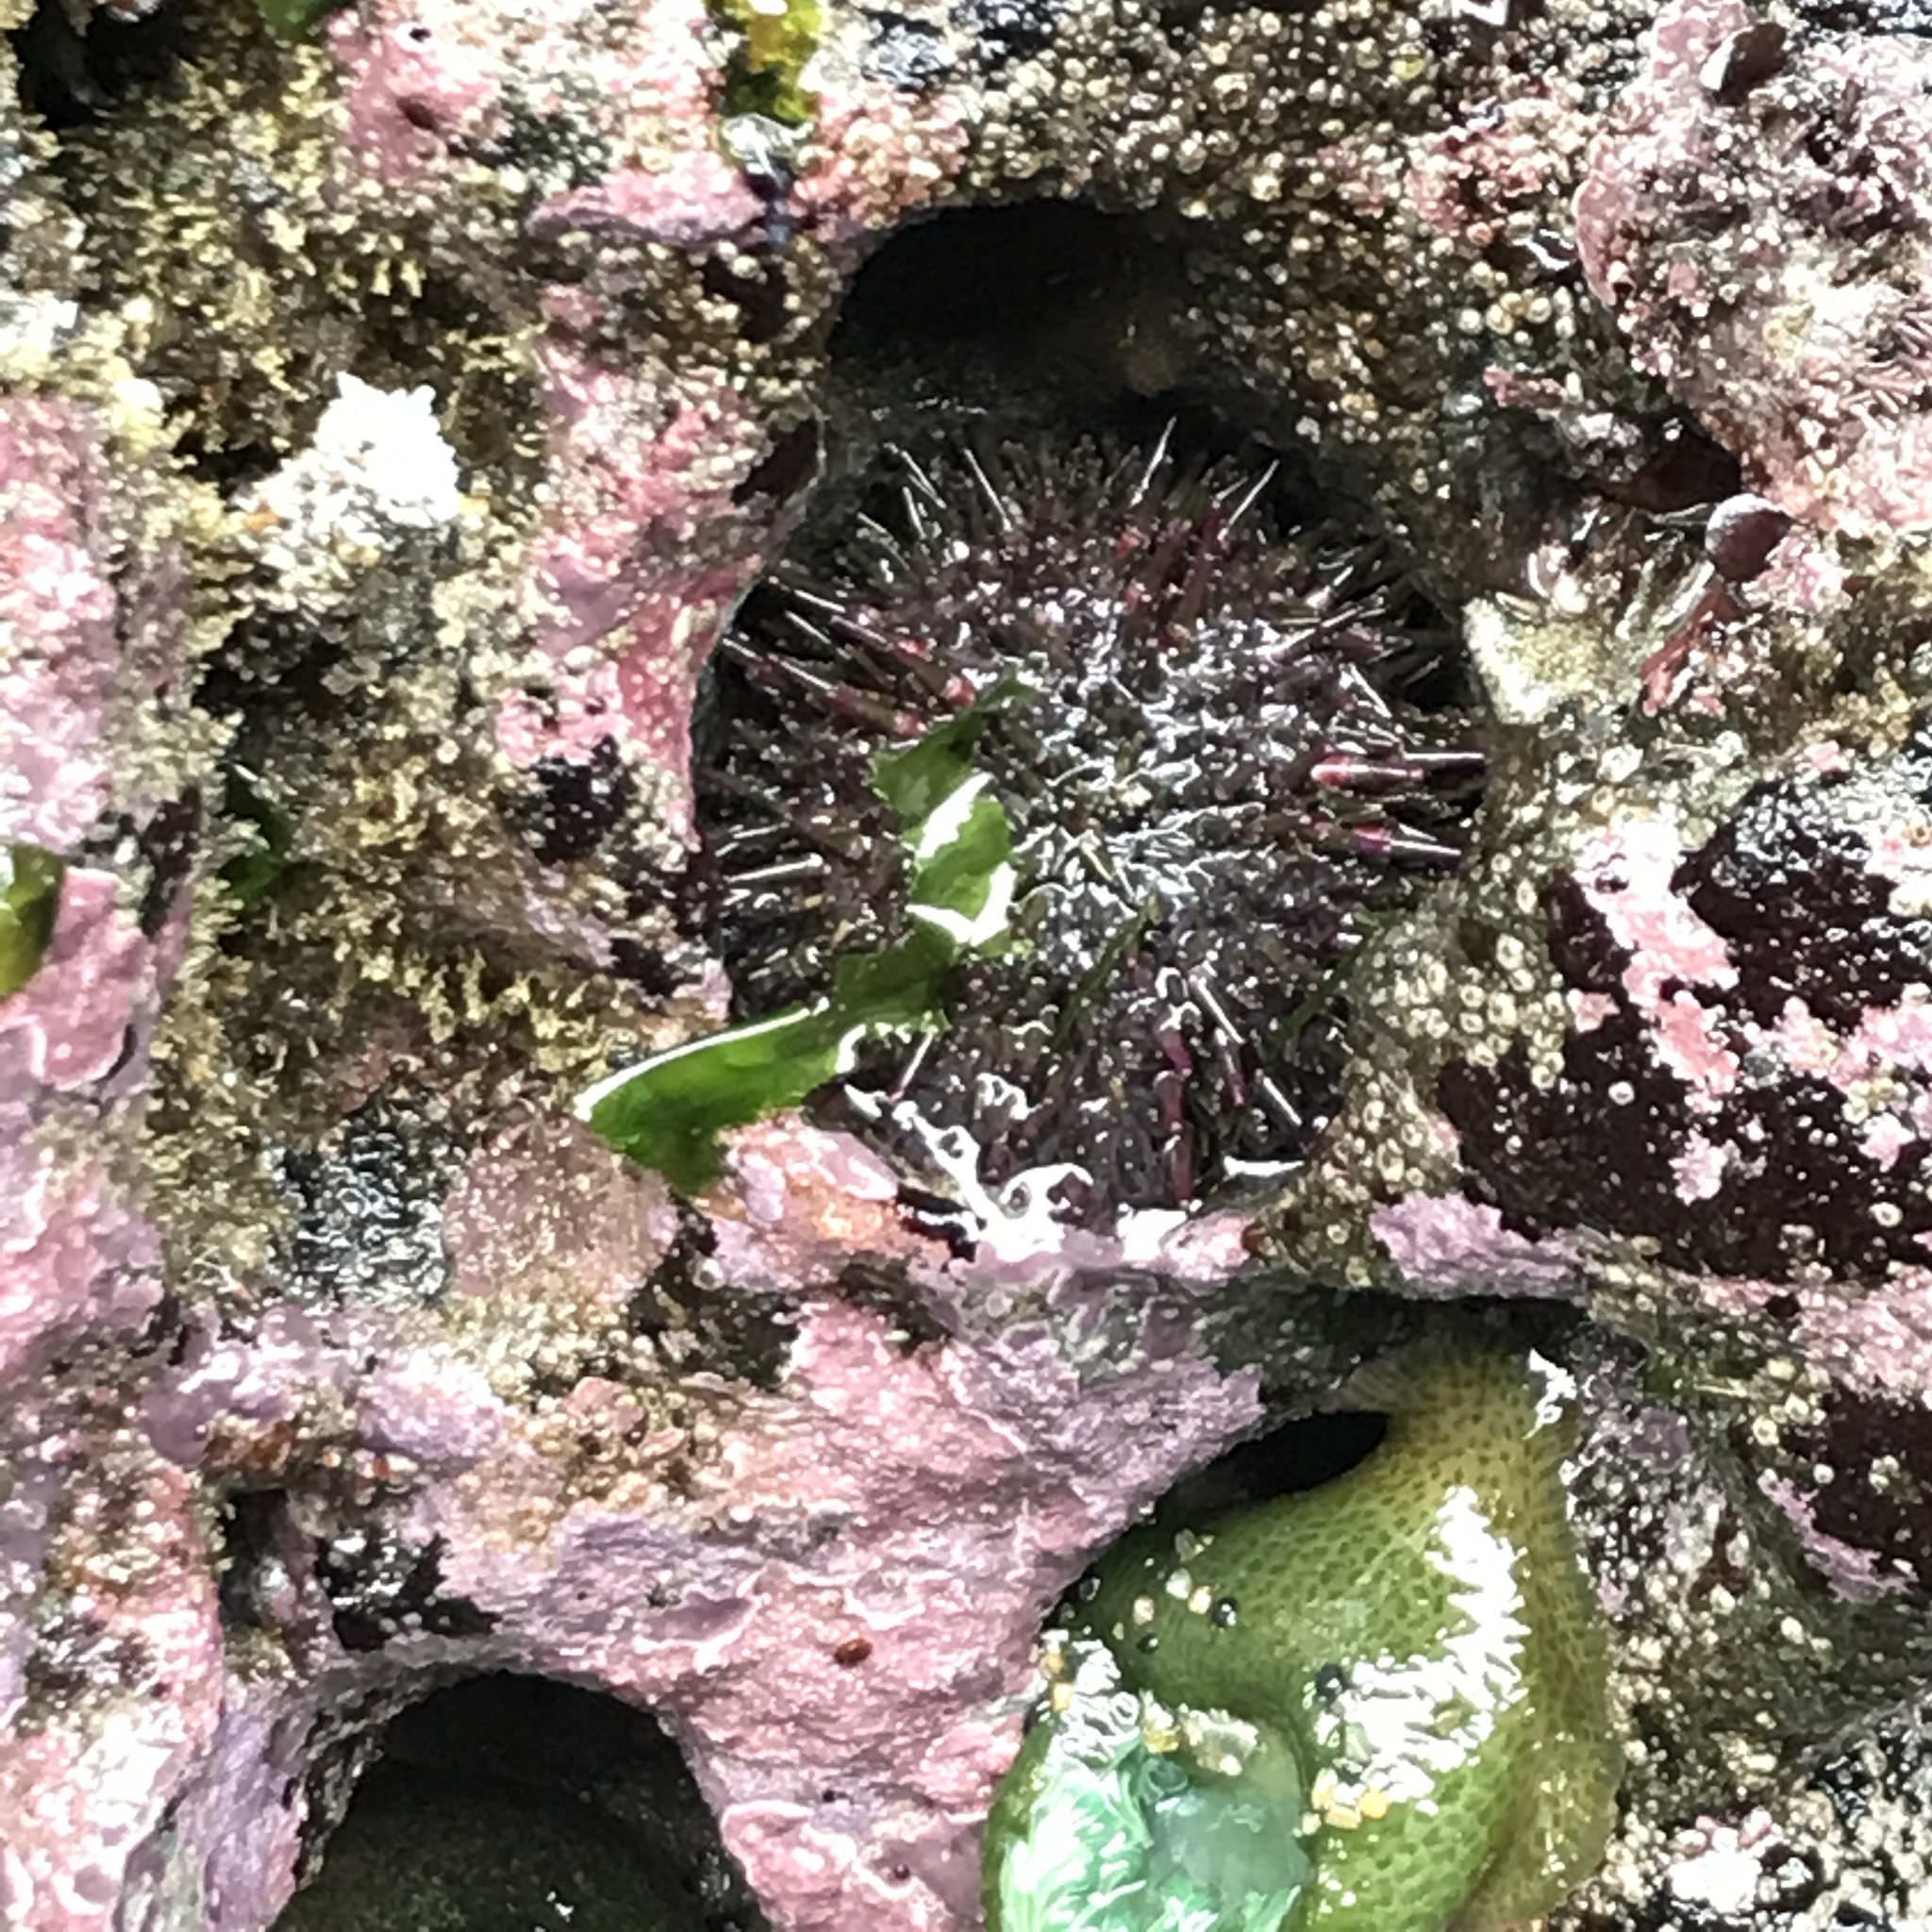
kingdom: Animalia
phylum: Echinodermata
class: Echinoidea
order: Camarodonta
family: Strongylocentrotidae
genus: Strongylocentrotus
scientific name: Strongylocentrotus purpuratus
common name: Purple sea urchin
